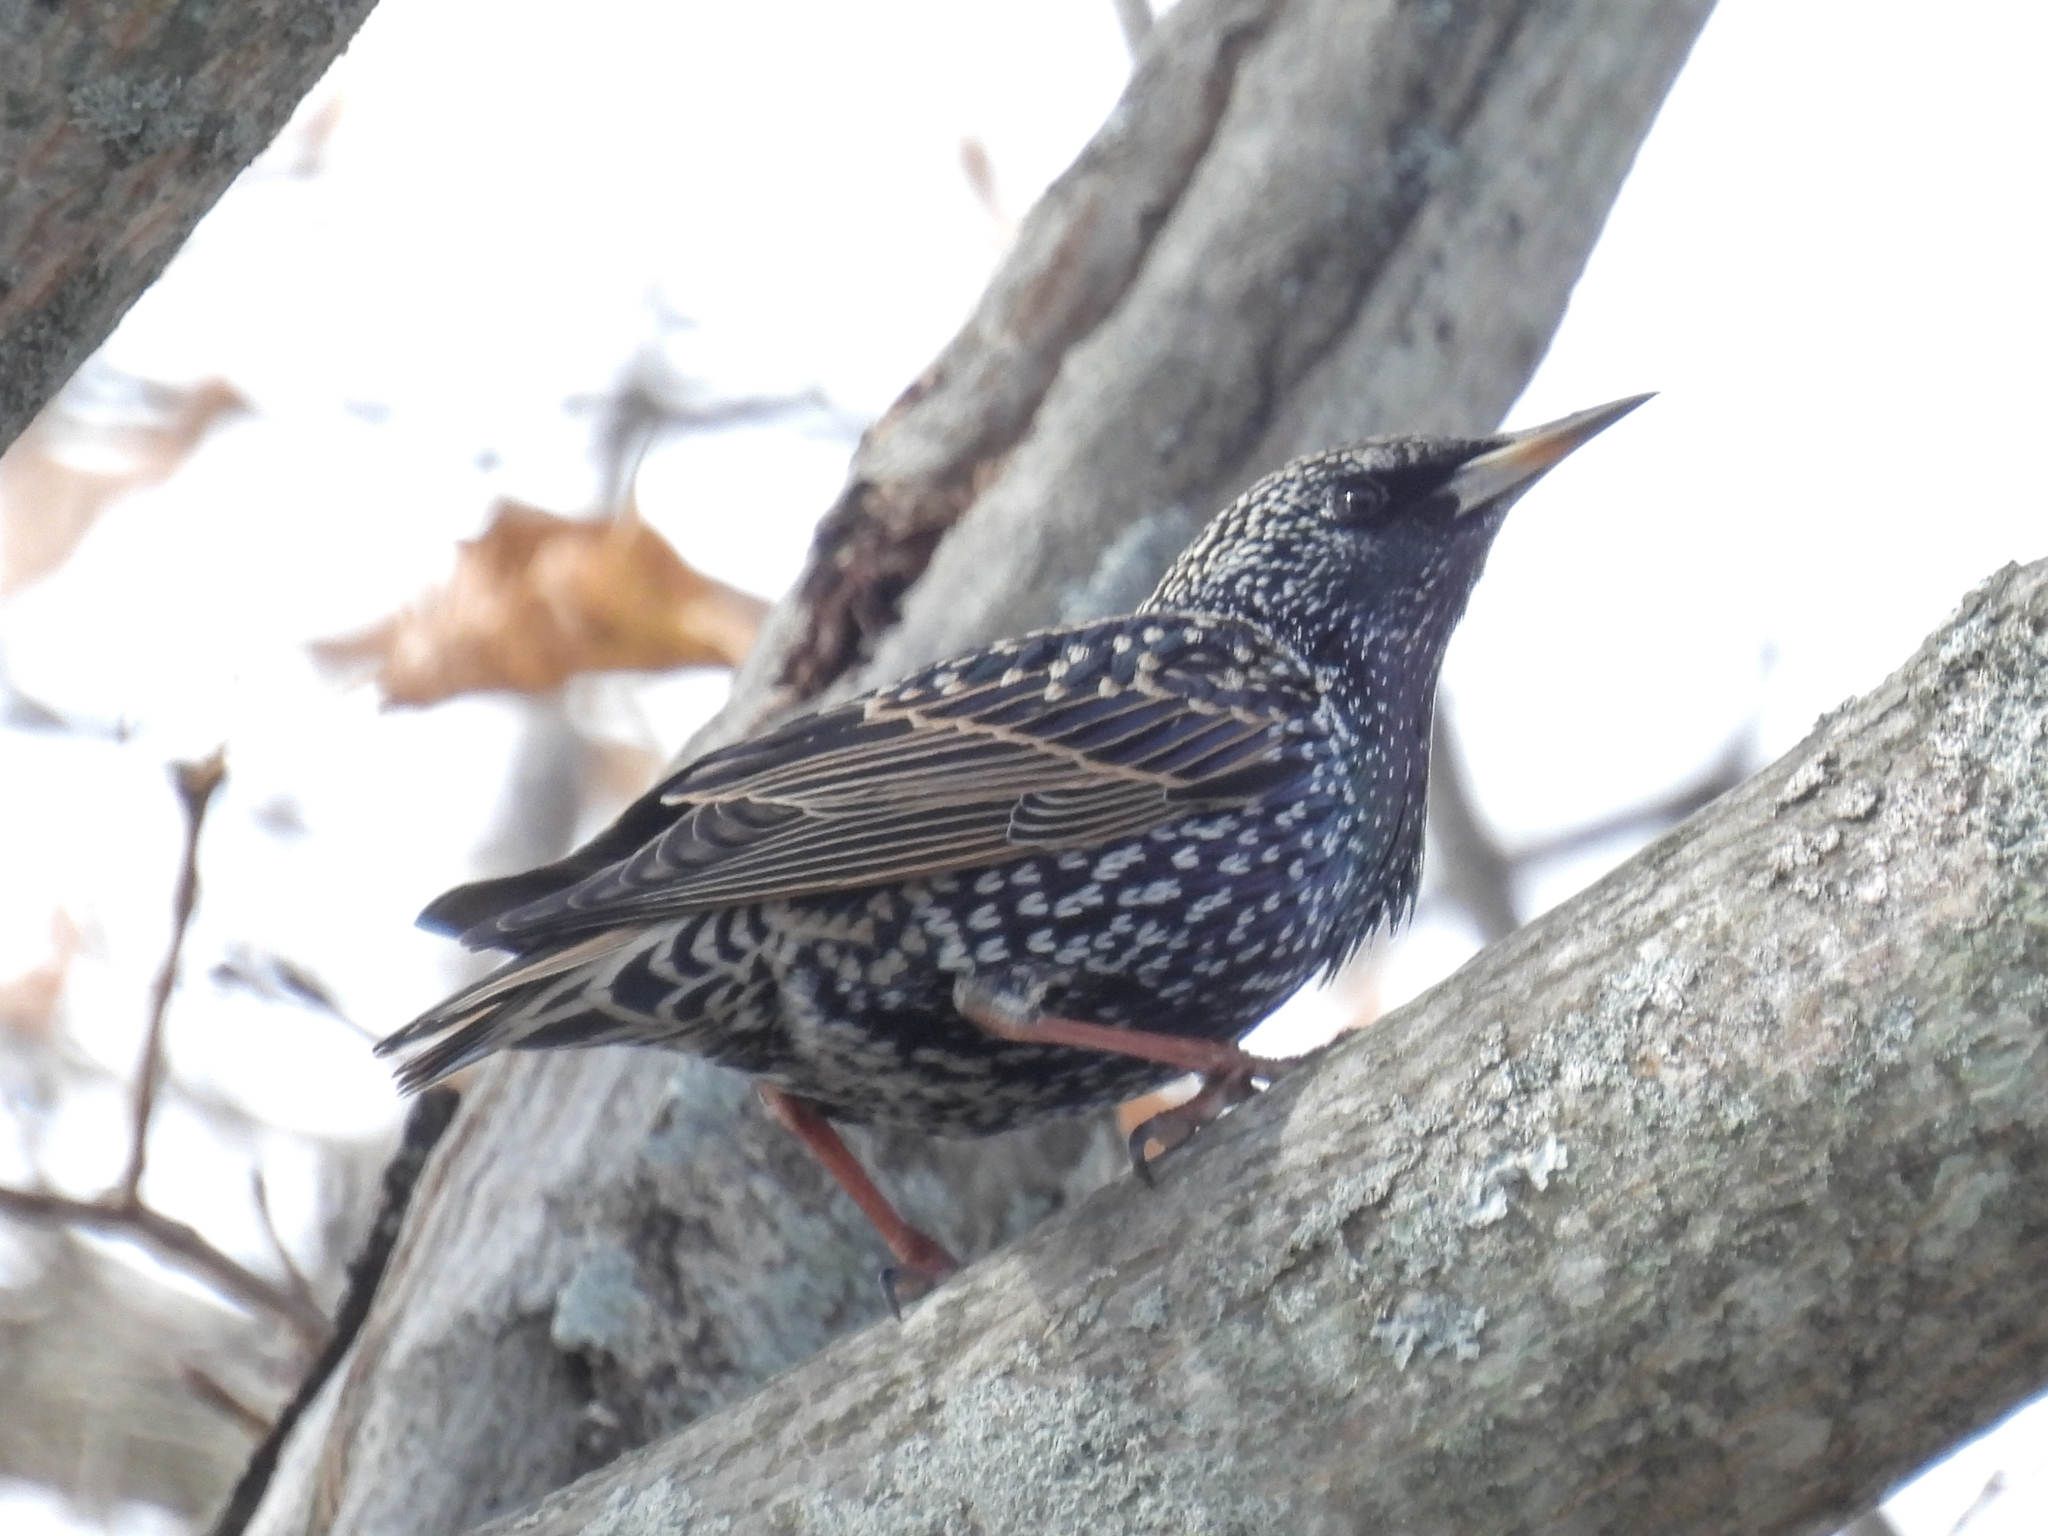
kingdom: Animalia
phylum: Chordata
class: Aves
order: Passeriformes
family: Sturnidae
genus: Sturnus
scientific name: Sturnus vulgaris
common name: Common starling
